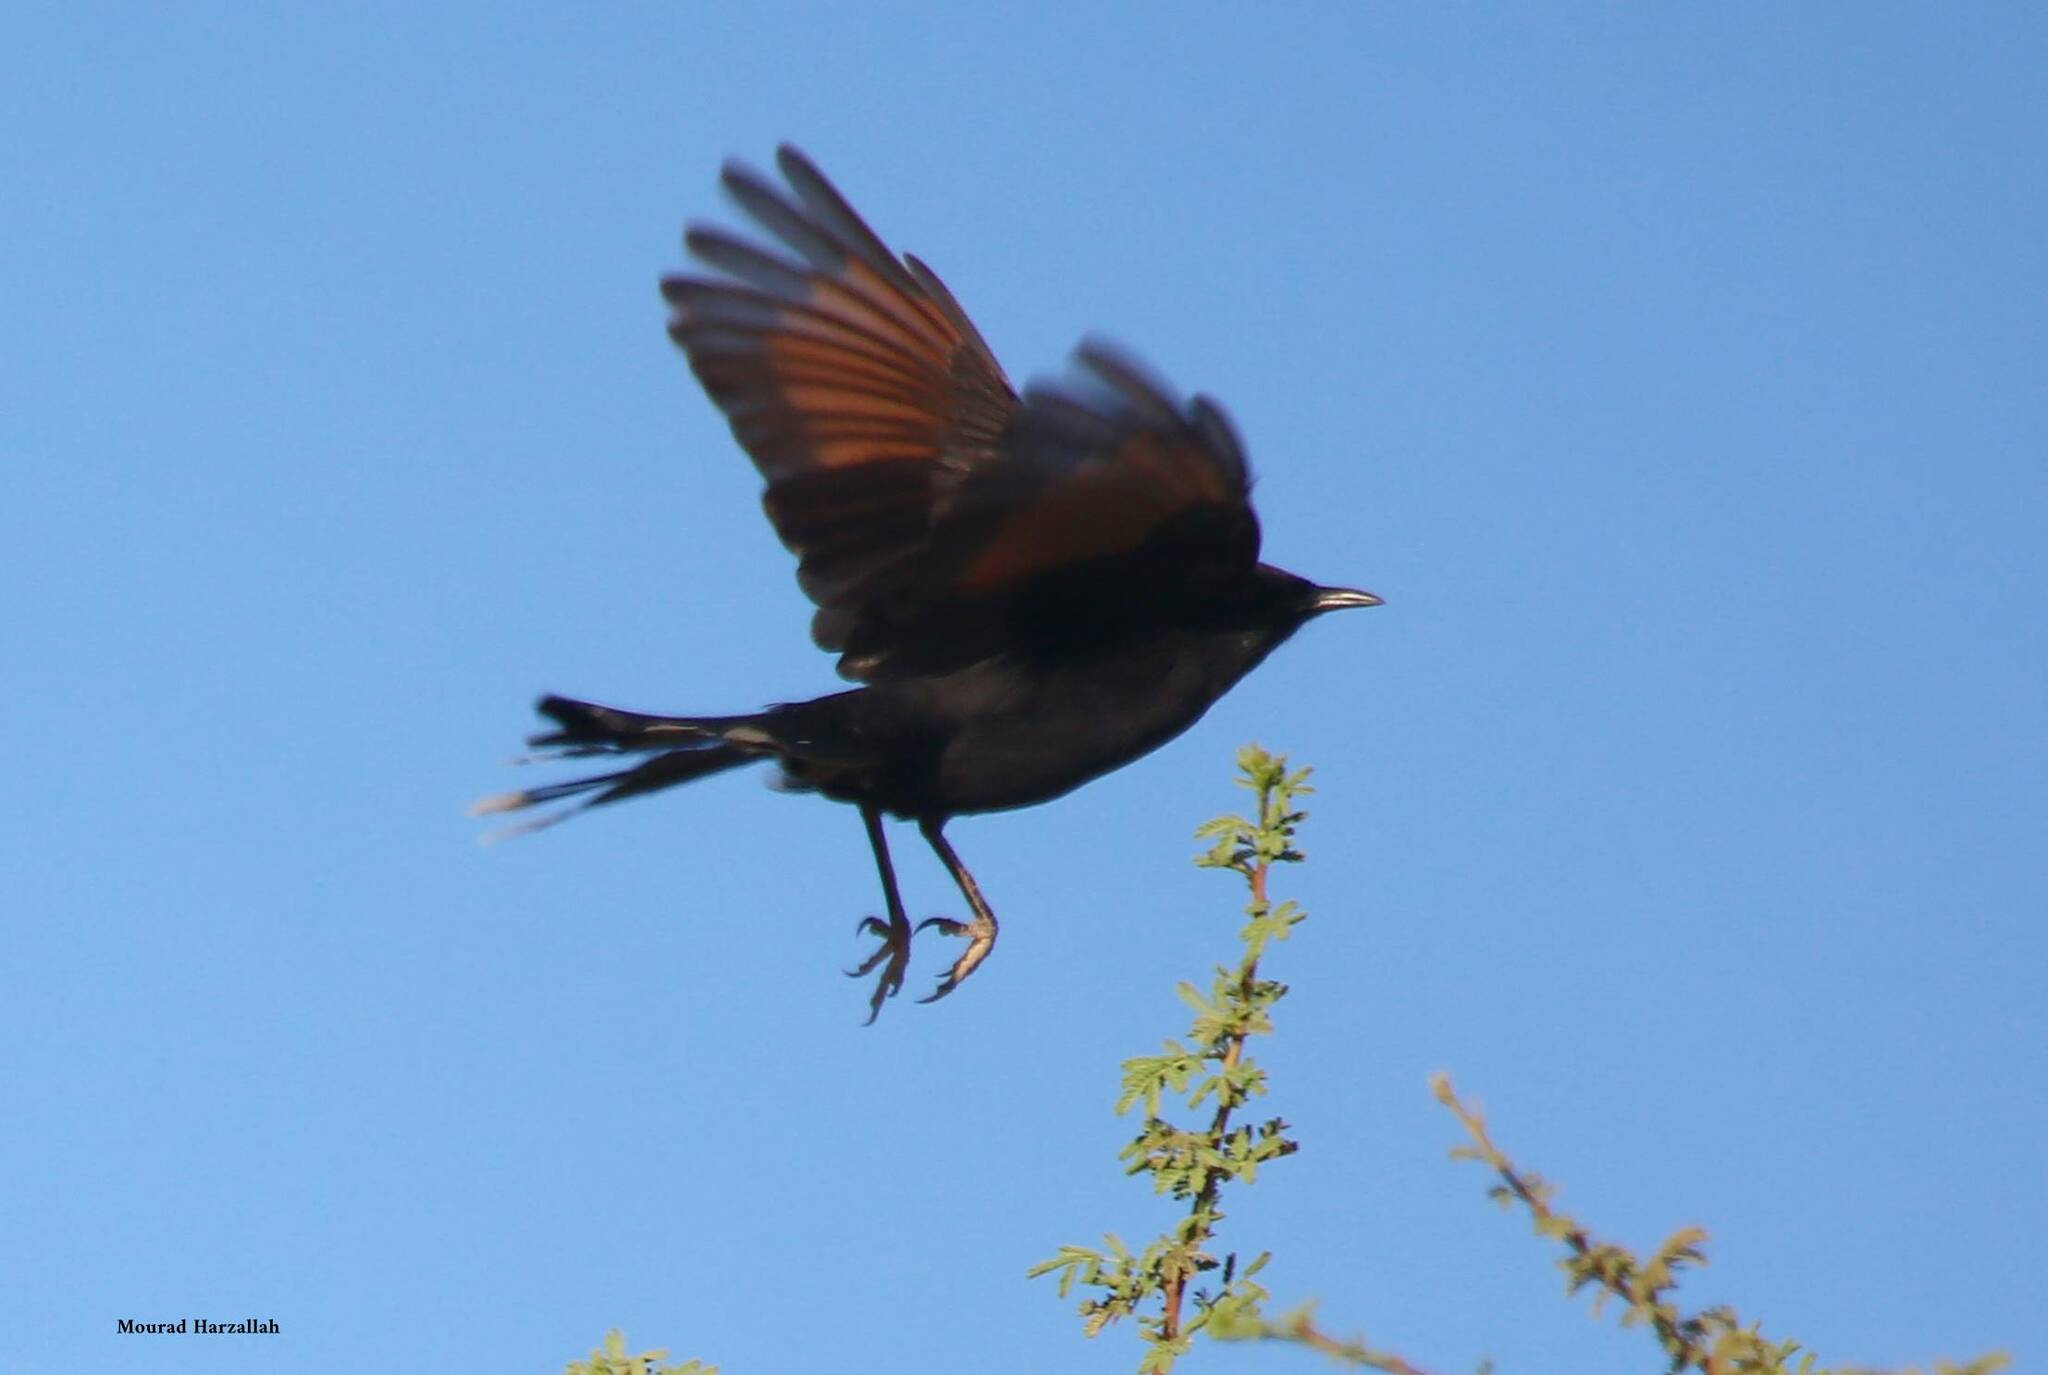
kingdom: Animalia
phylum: Chordata
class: Aves
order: Passeriformes
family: Muscicapidae
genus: Cercotrichas
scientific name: Cercotrichas podobe
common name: Black scrub robin
